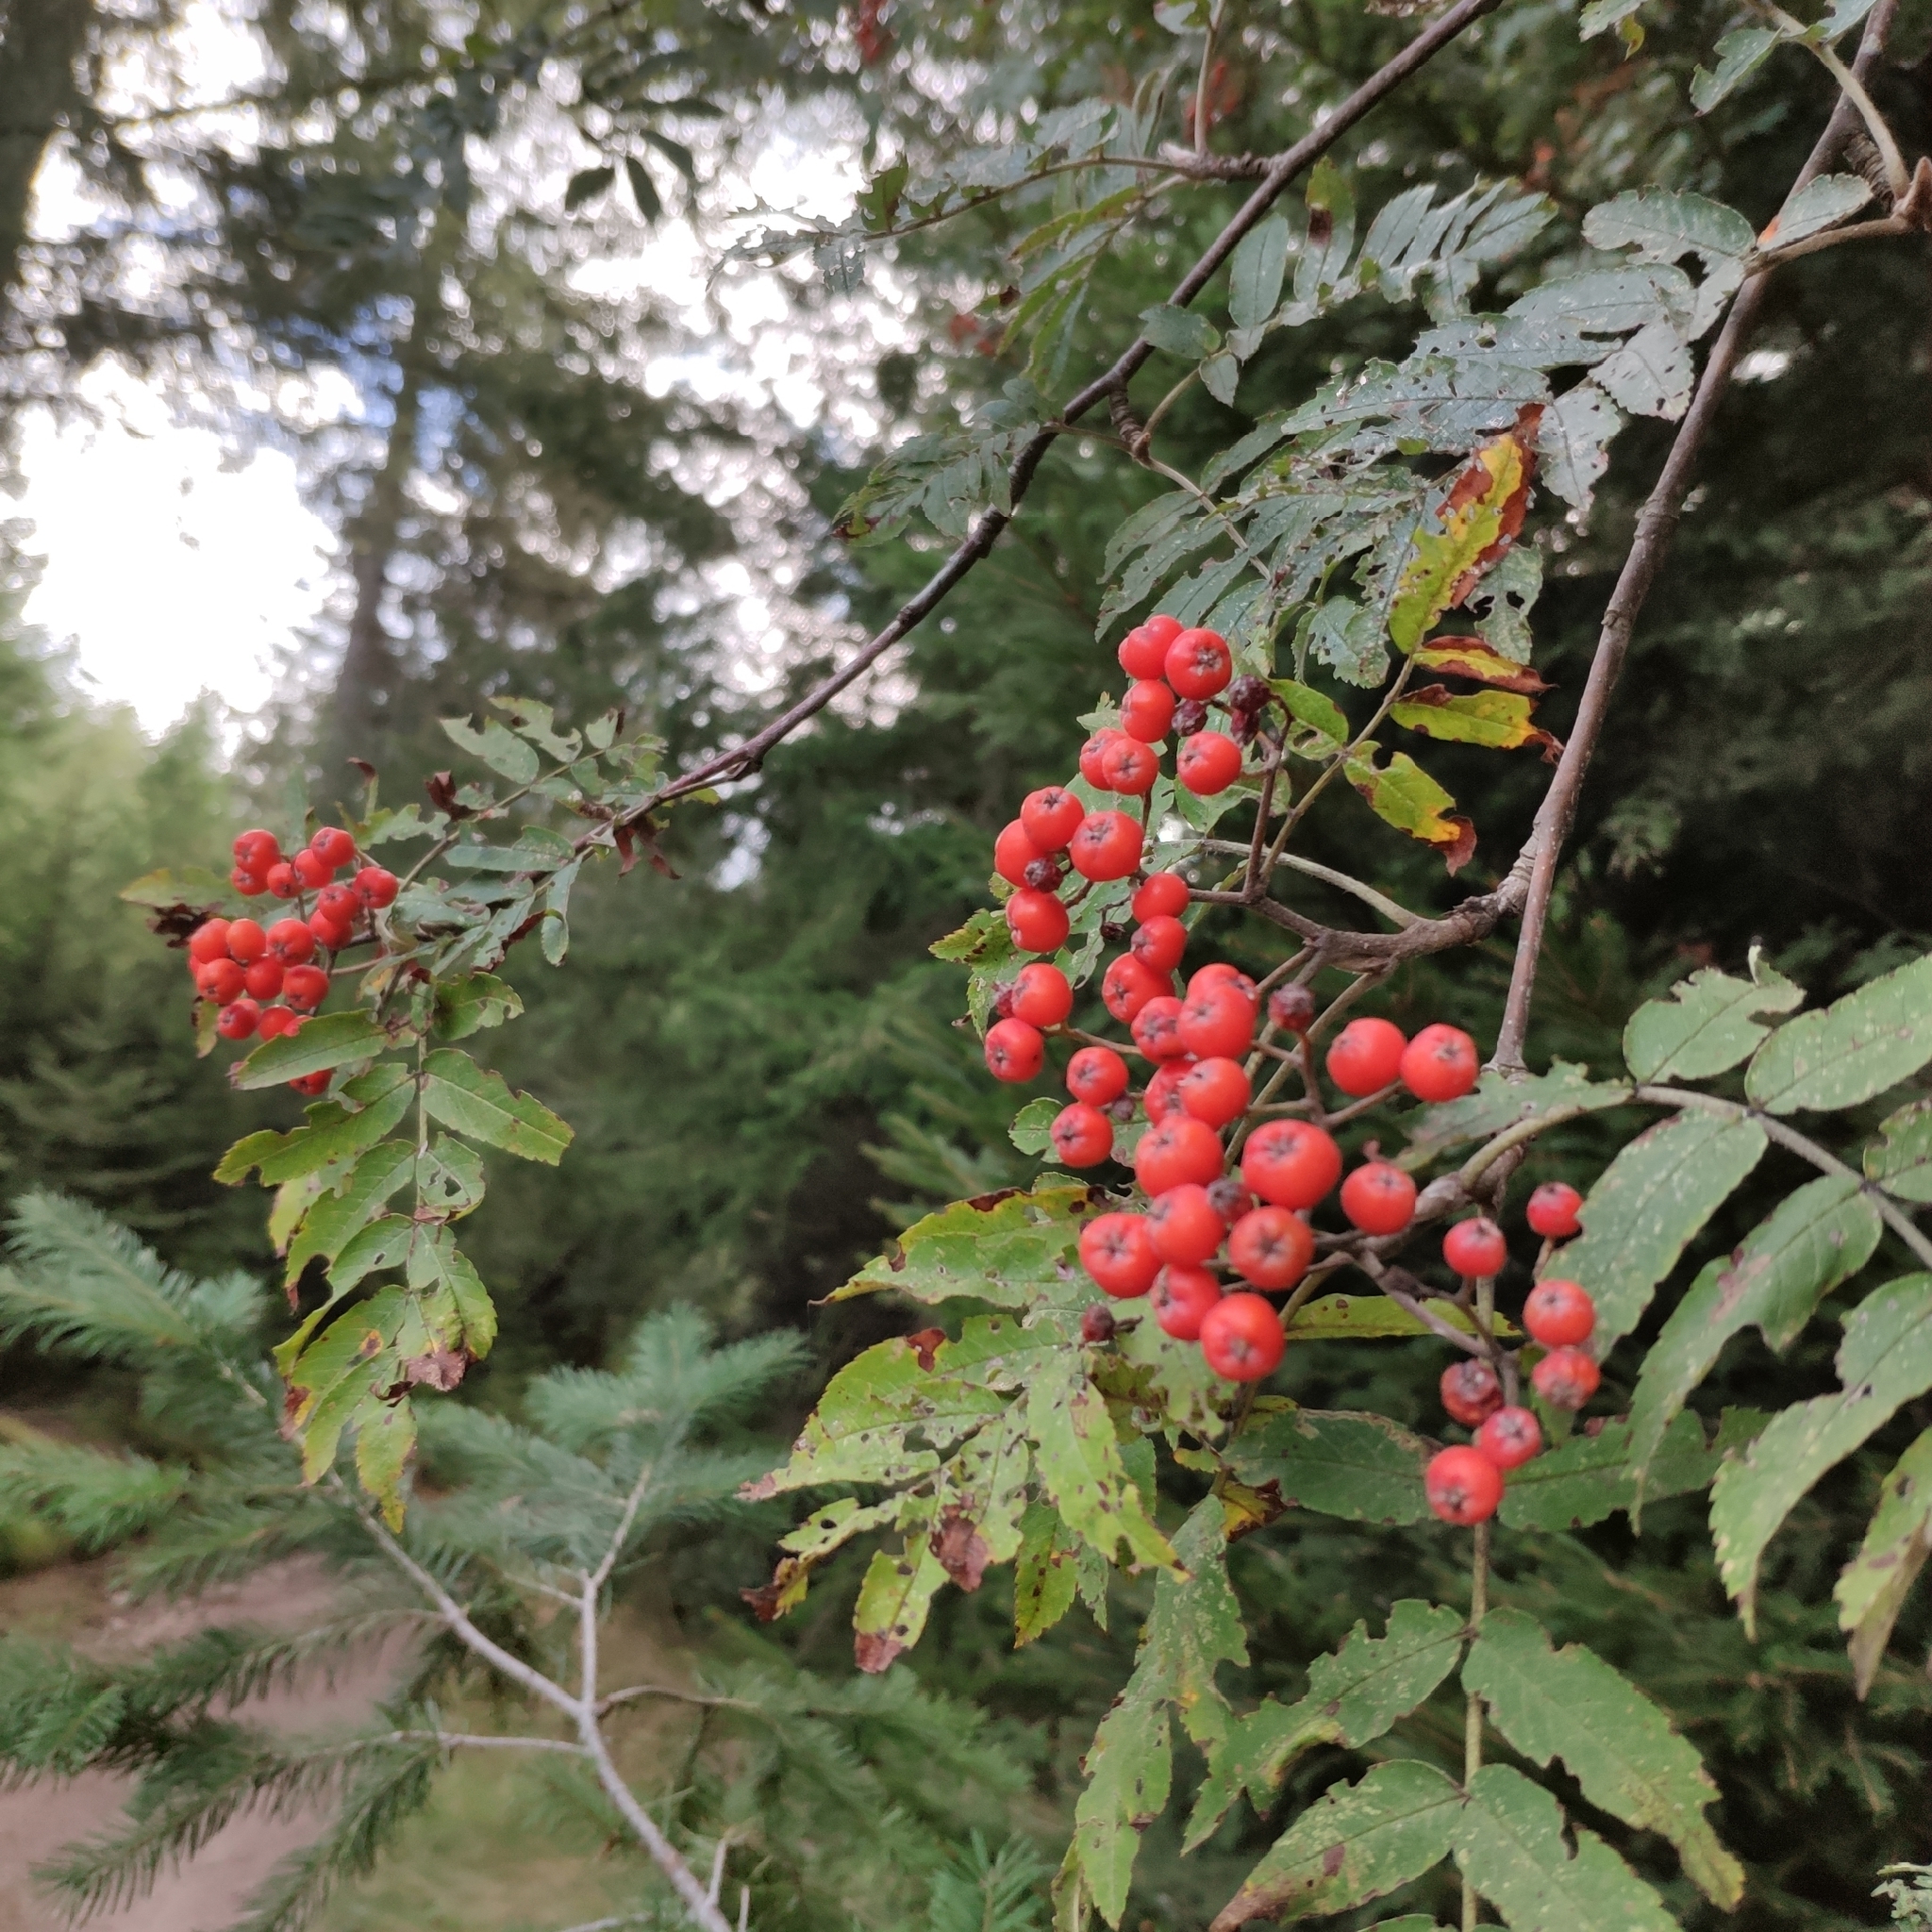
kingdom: Plantae
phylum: Tracheophyta
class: Magnoliopsida
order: Rosales
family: Rosaceae
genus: Sorbus
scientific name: Sorbus aucuparia
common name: Rowan
